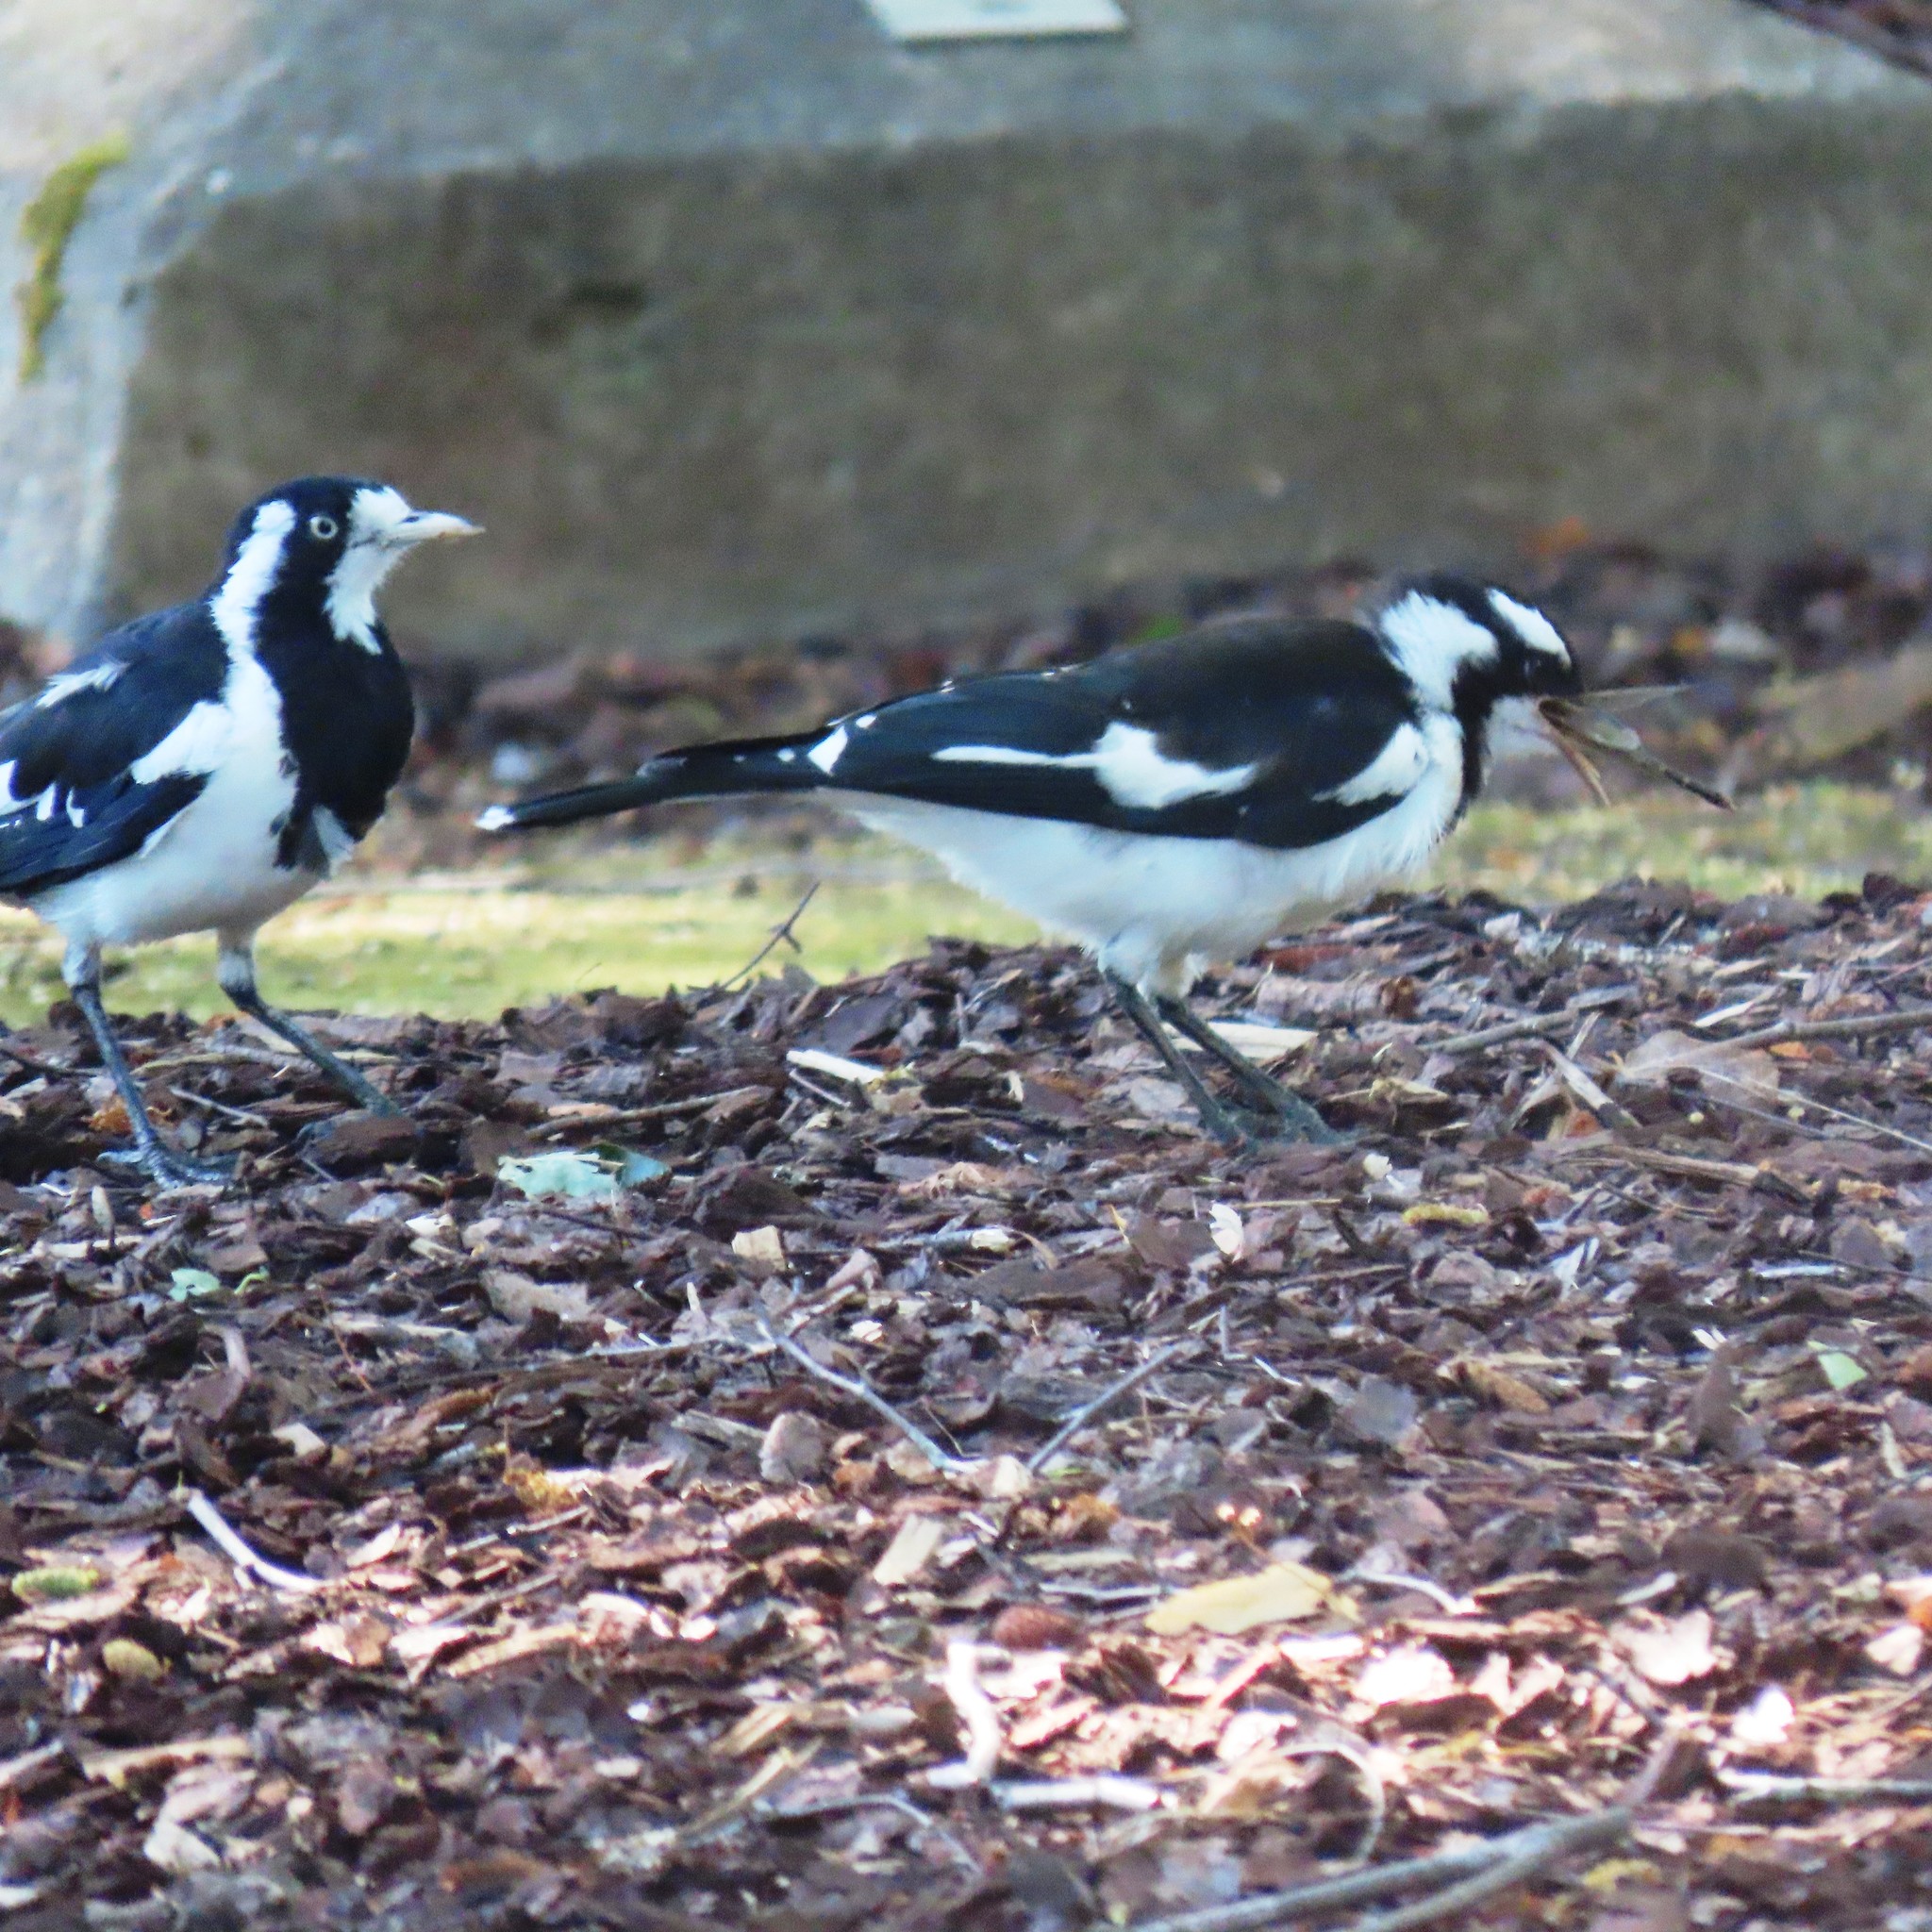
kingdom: Animalia
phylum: Chordata
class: Aves
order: Passeriformes
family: Monarchidae
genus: Grallina
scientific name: Grallina cyanoleuca
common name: Magpie-lark
